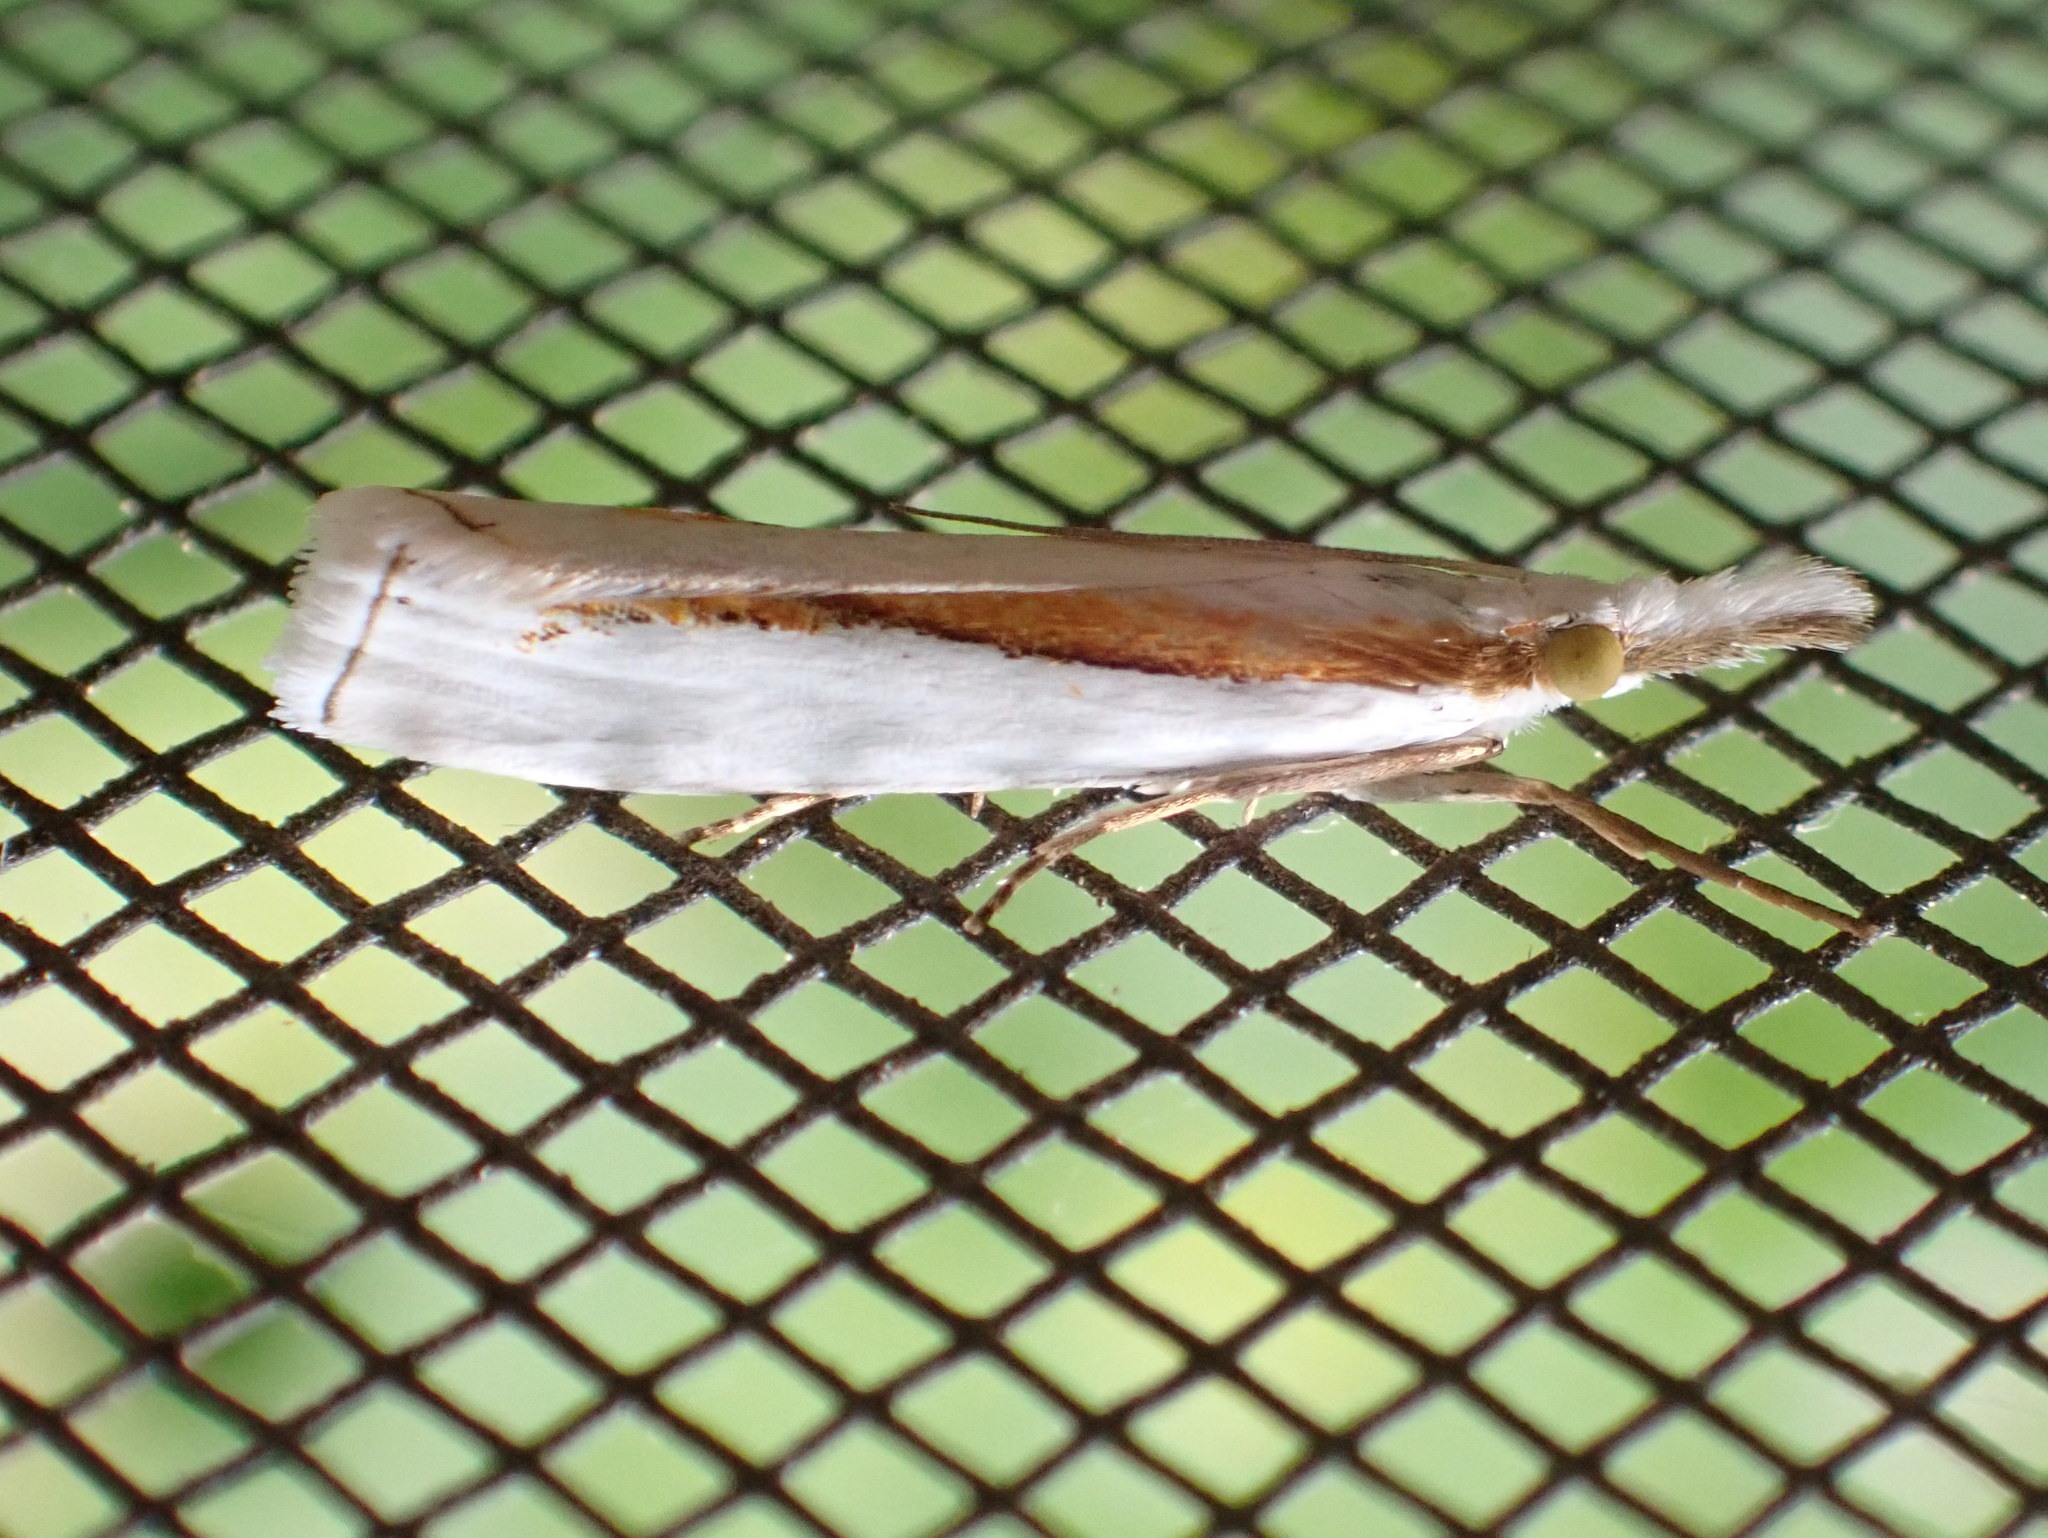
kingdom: Animalia
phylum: Arthropoda
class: Insecta
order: Lepidoptera
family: Crambidae
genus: Crambus
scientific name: Crambus girardellus
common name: Girard's grass-veneer
